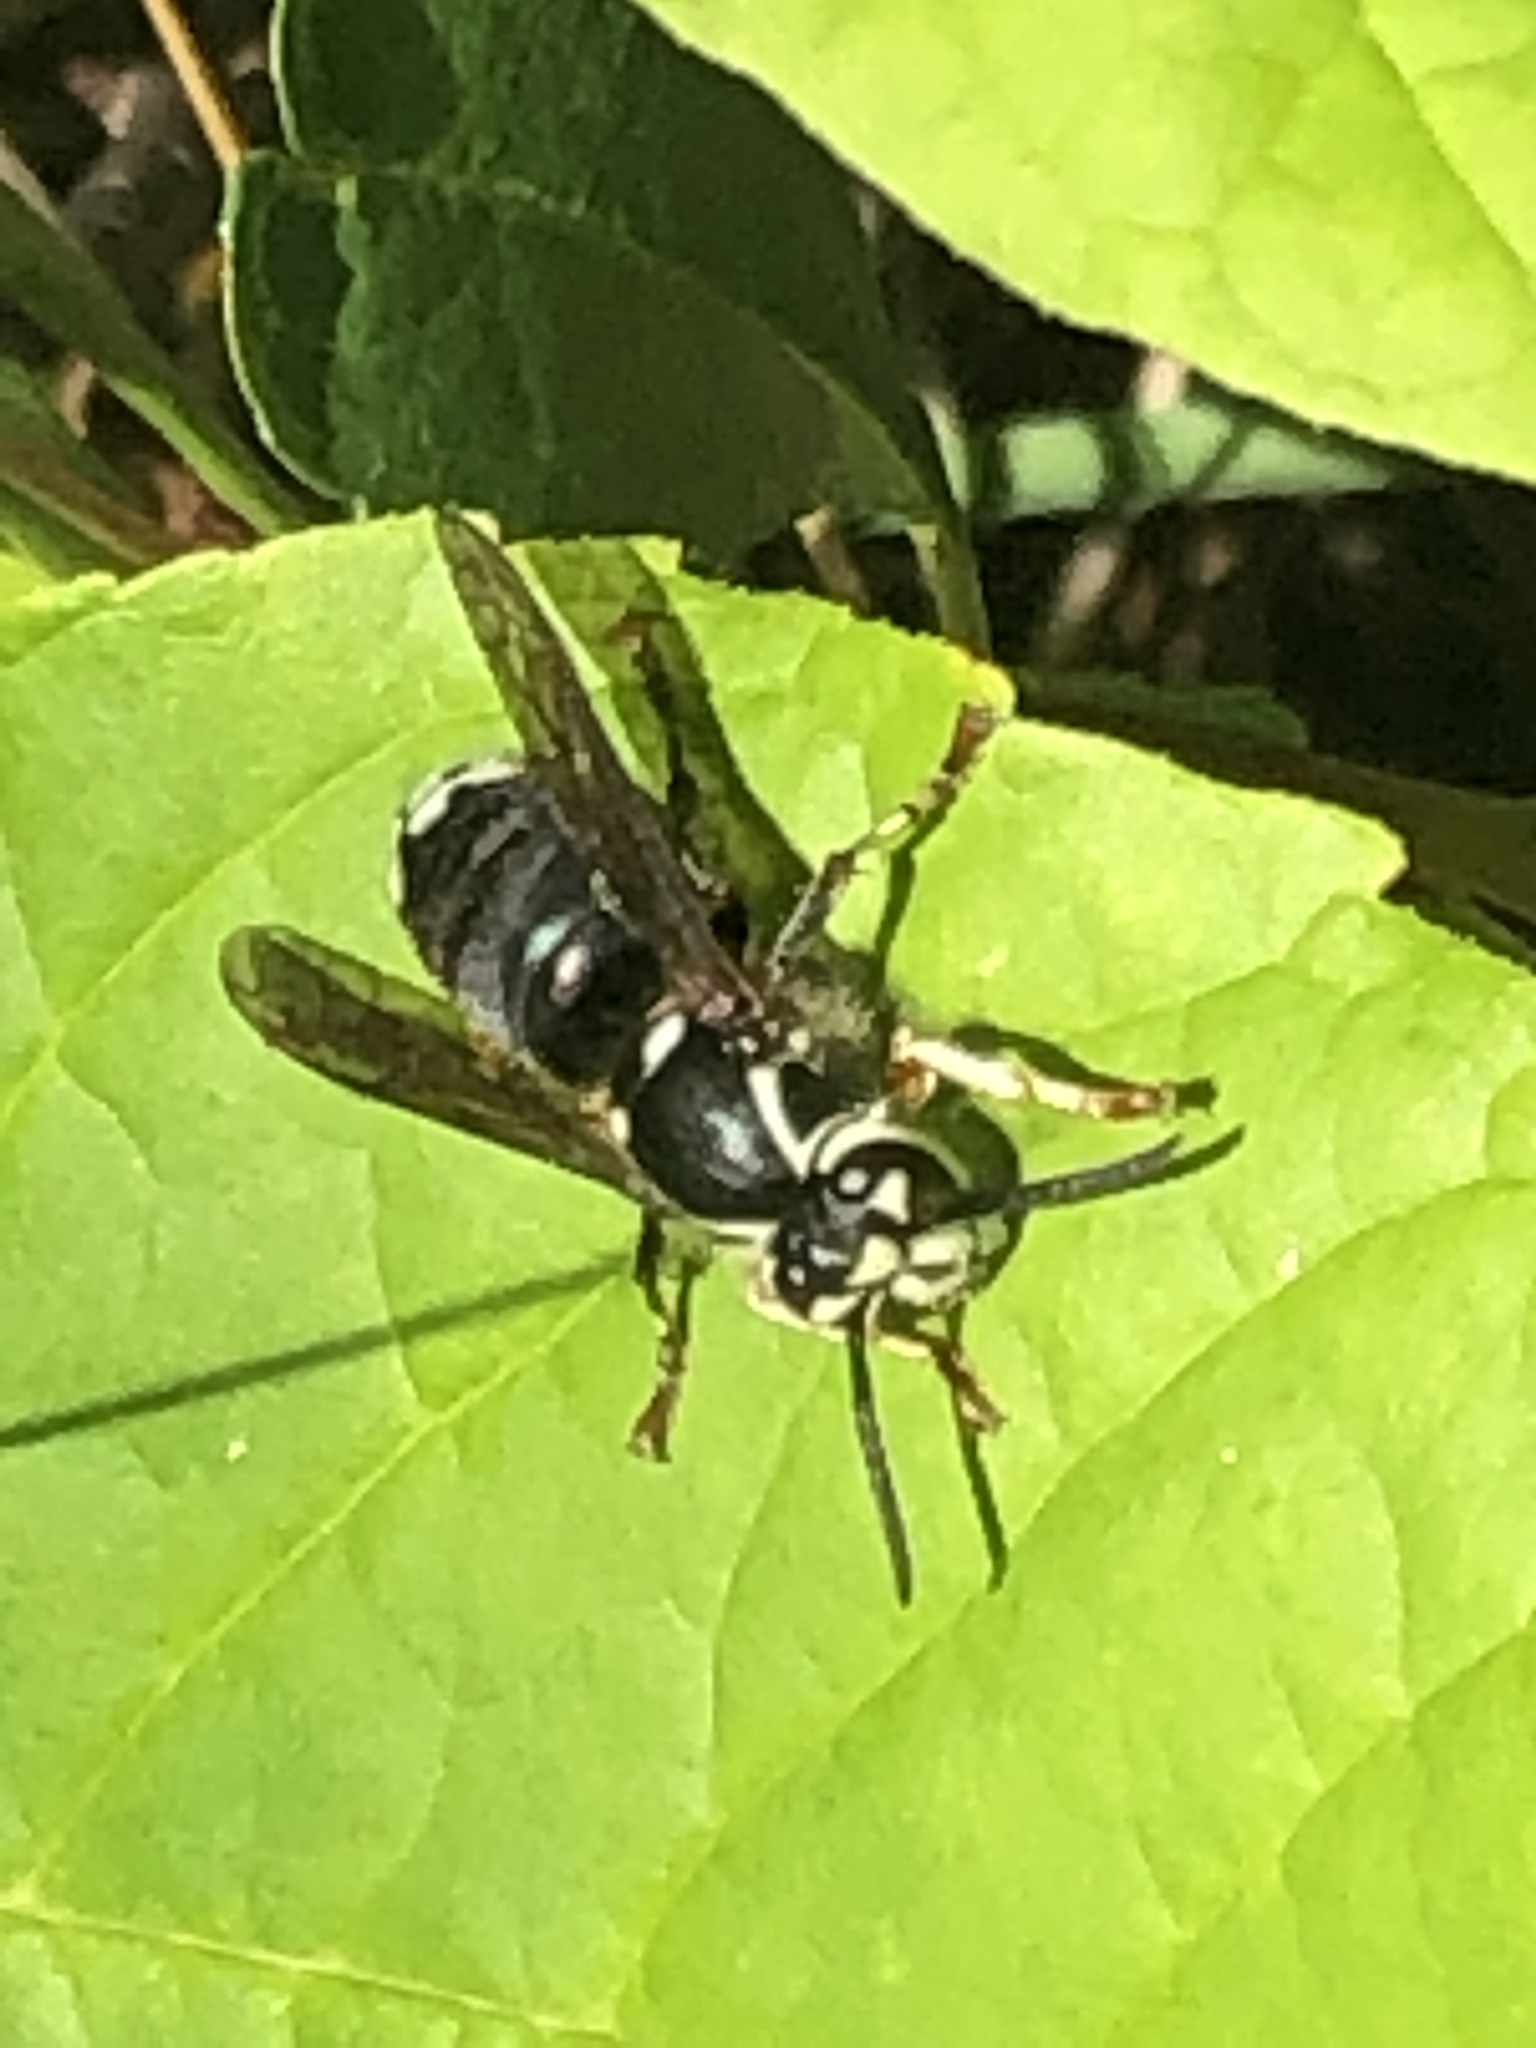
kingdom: Animalia
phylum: Arthropoda
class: Insecta
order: Hymenoptera
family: Vespidae
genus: Dolichovespula
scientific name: Dolichovespula maculata
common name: Bald-faced hornet
